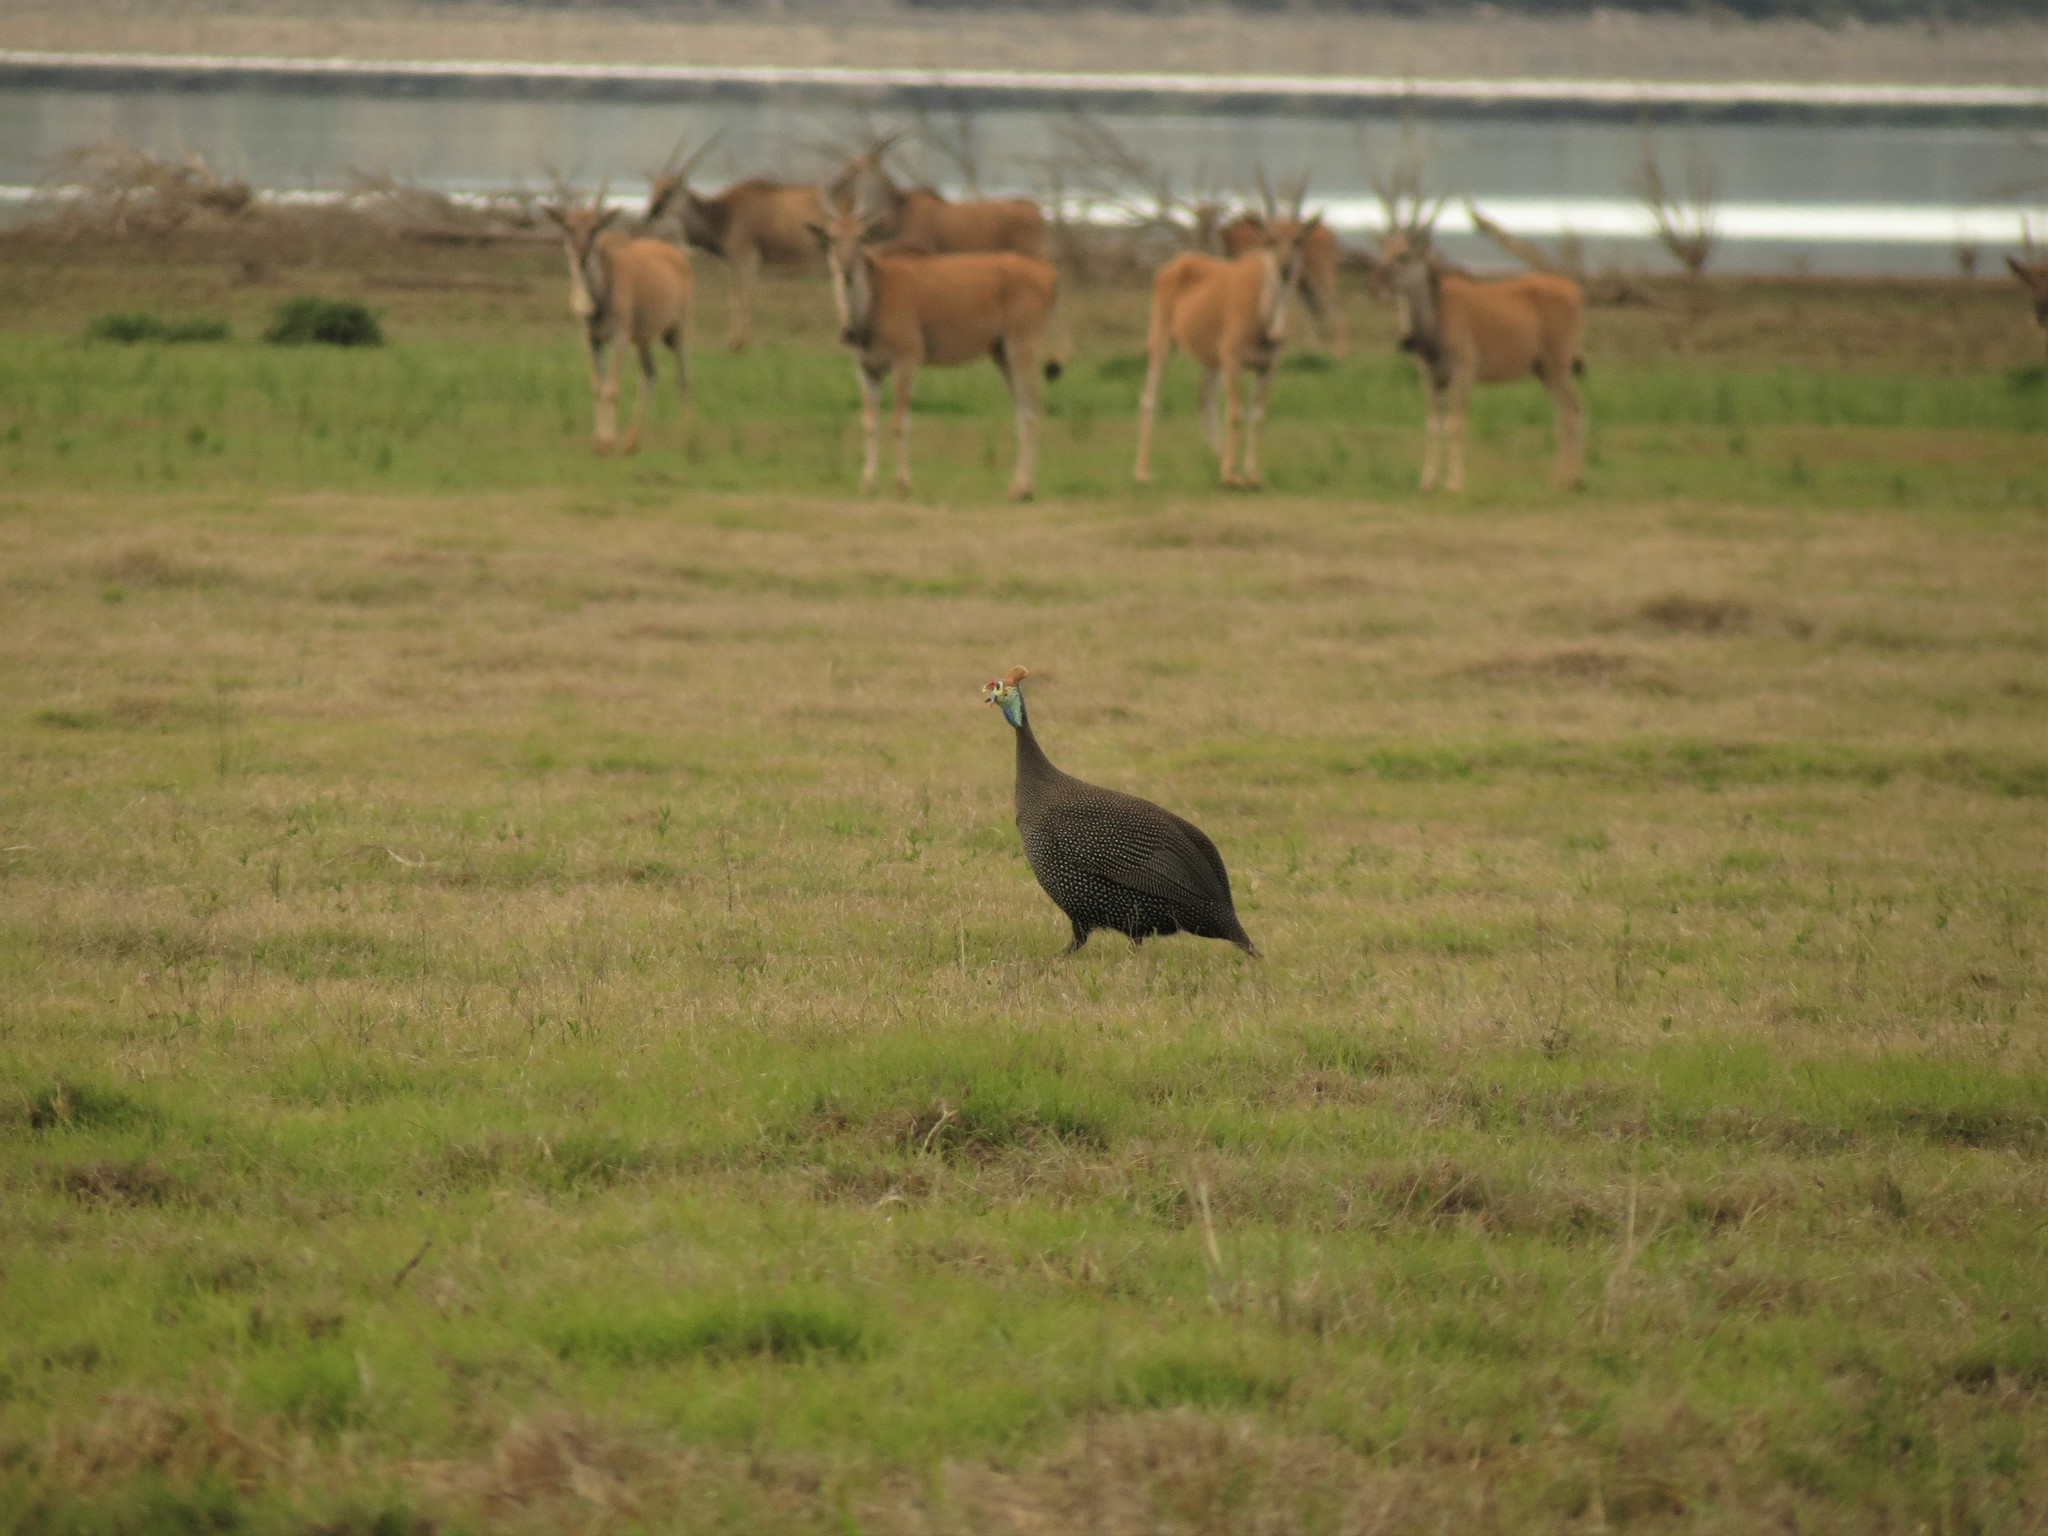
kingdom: Animalia
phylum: Chordata
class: Aves
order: Galliformes
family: Numididae
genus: Numida
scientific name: Numida meleagris
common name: Helmeted guineafowl
